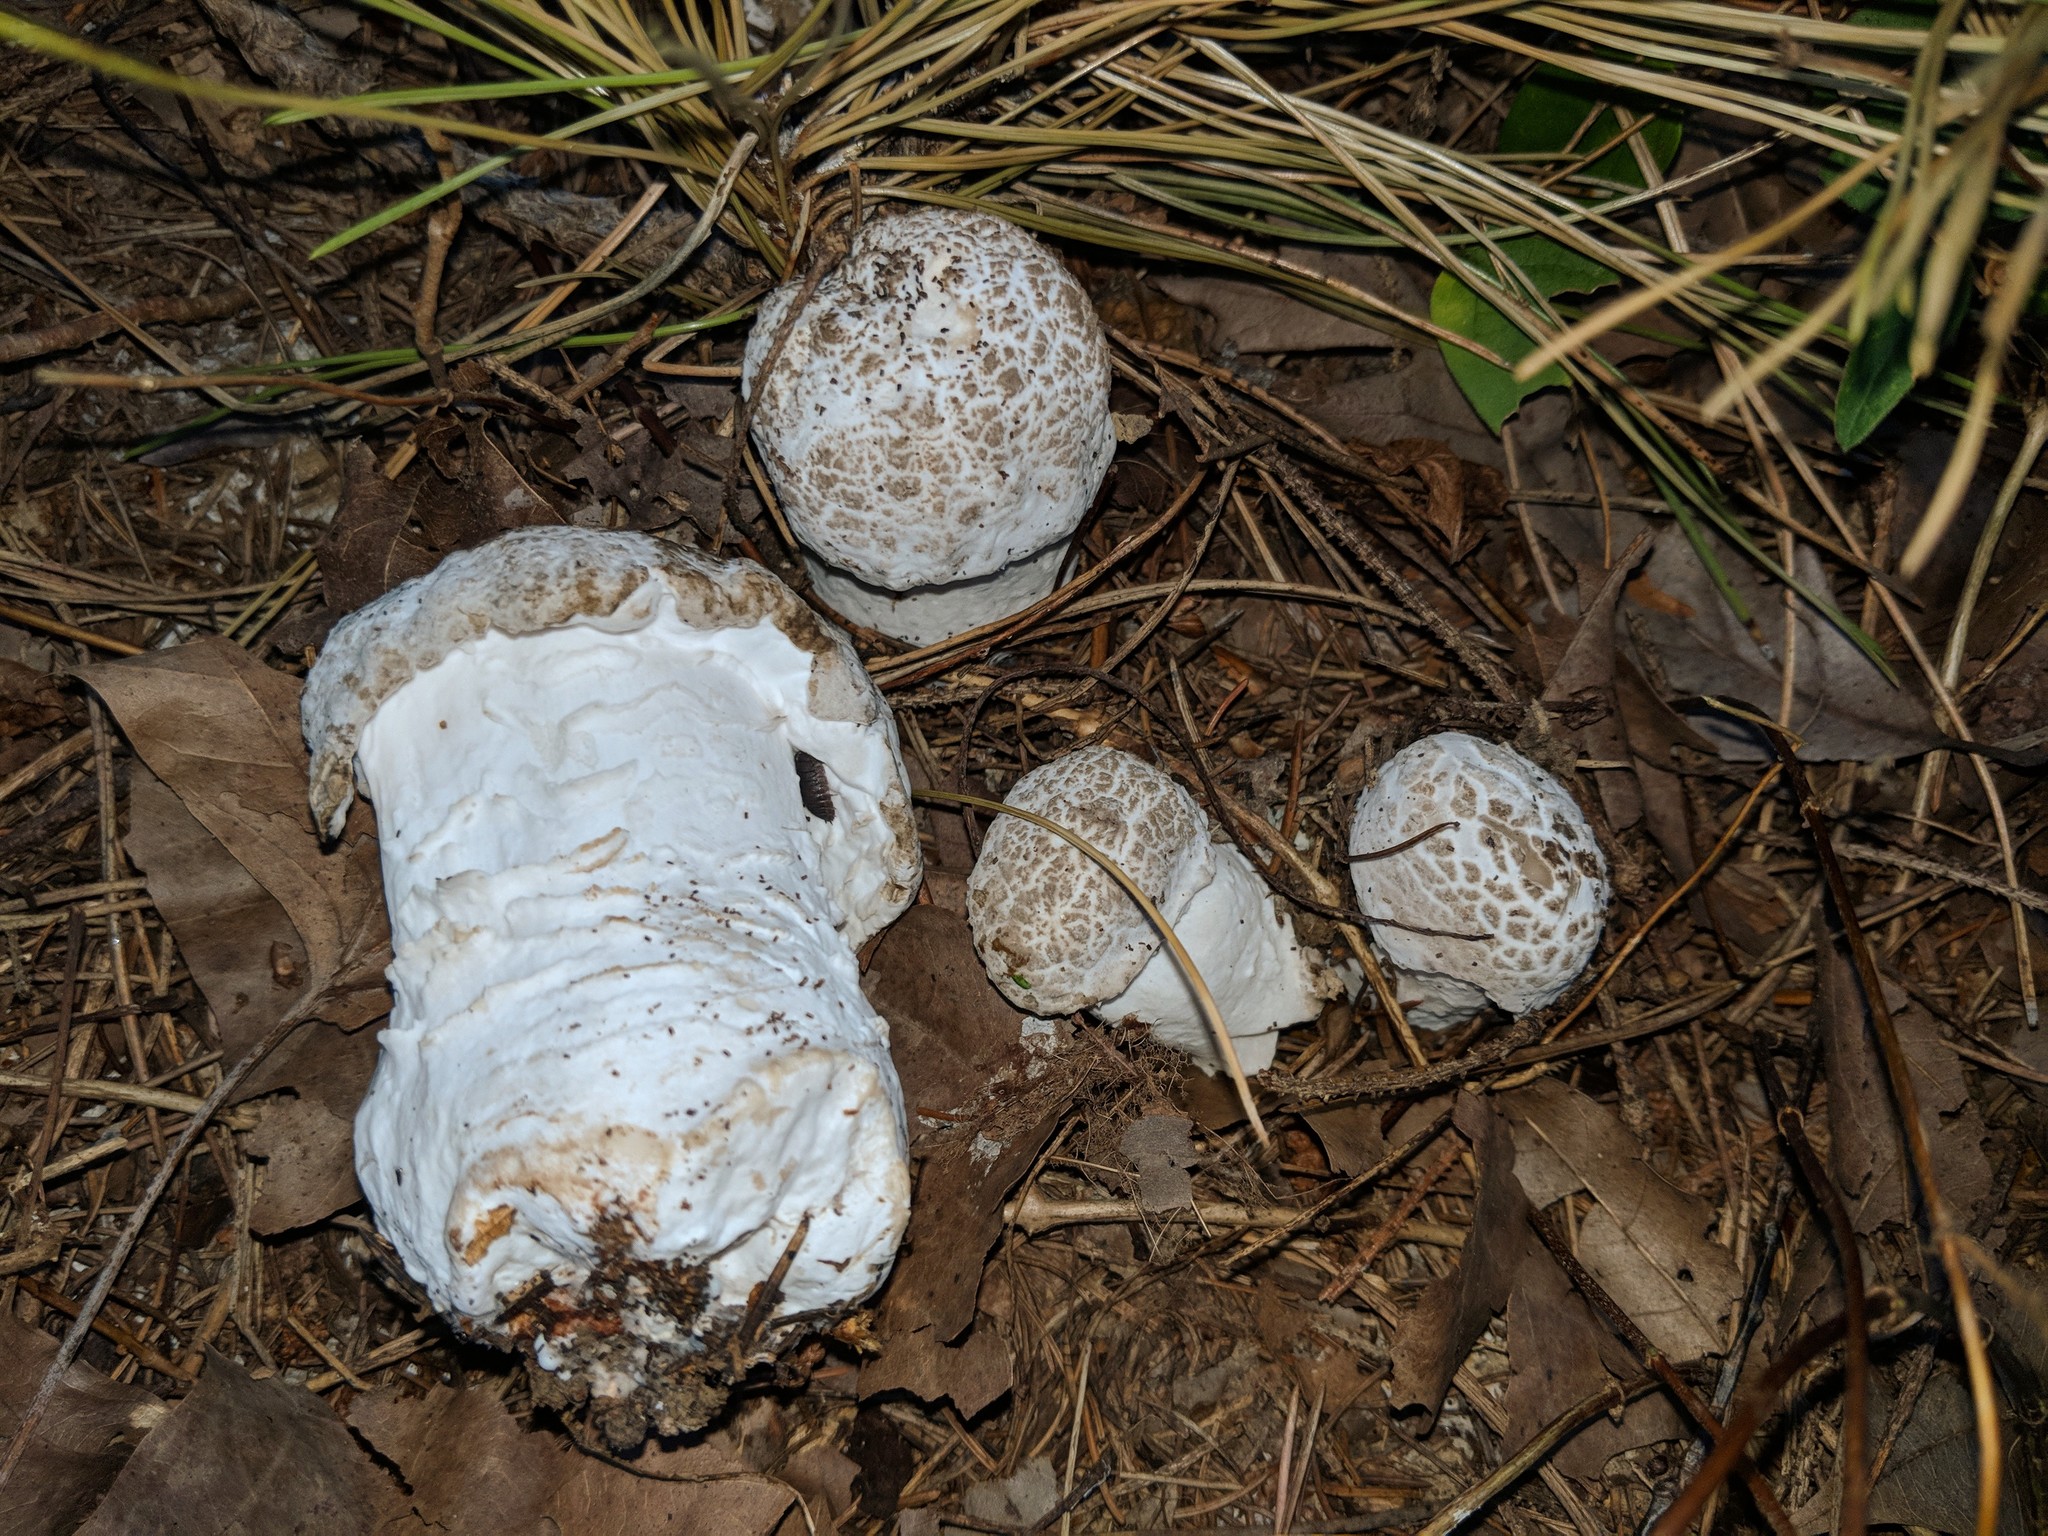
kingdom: Fungi
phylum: Ascomycota
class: Sordariomycetes
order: Hypocreales
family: Hypocreaceae
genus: Hypomyces
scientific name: Hypomyces hyalinus
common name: Amanita mold
